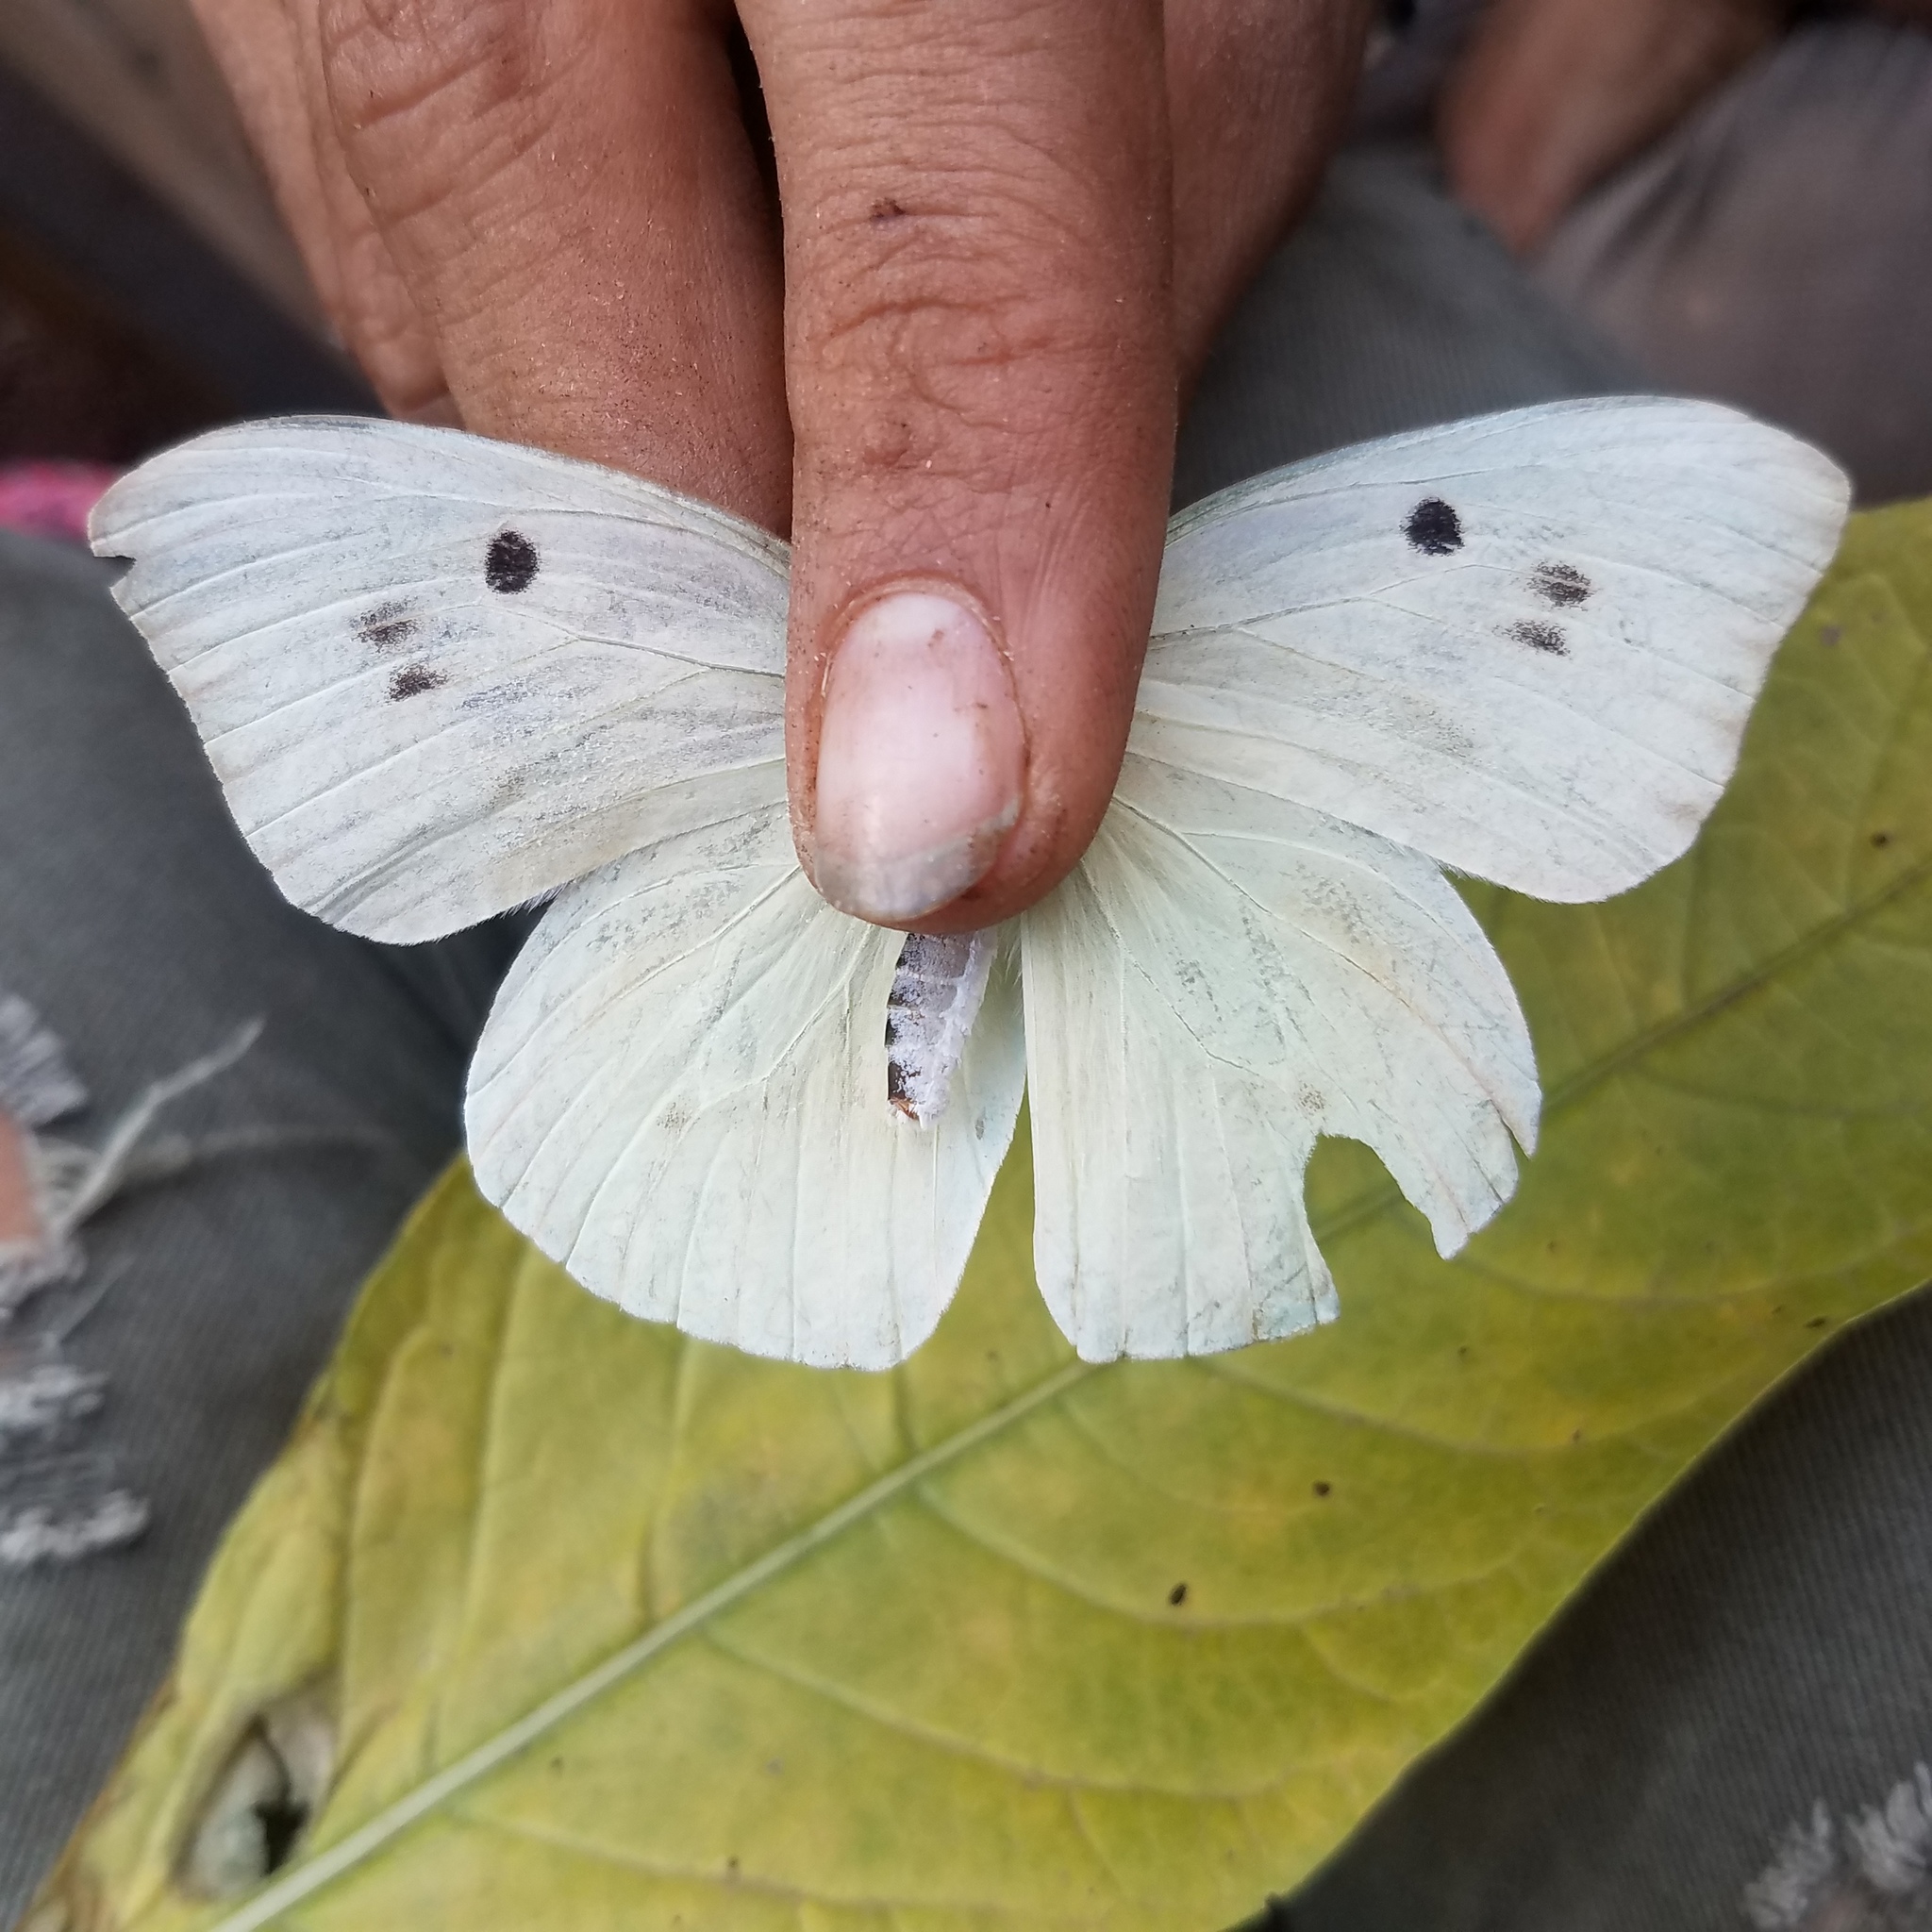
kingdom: Animalia
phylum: Arthropoda
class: Insecta
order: Lepidoptera
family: Pieridae
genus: Ganyra
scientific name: Ganyra josephina
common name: Giant white
